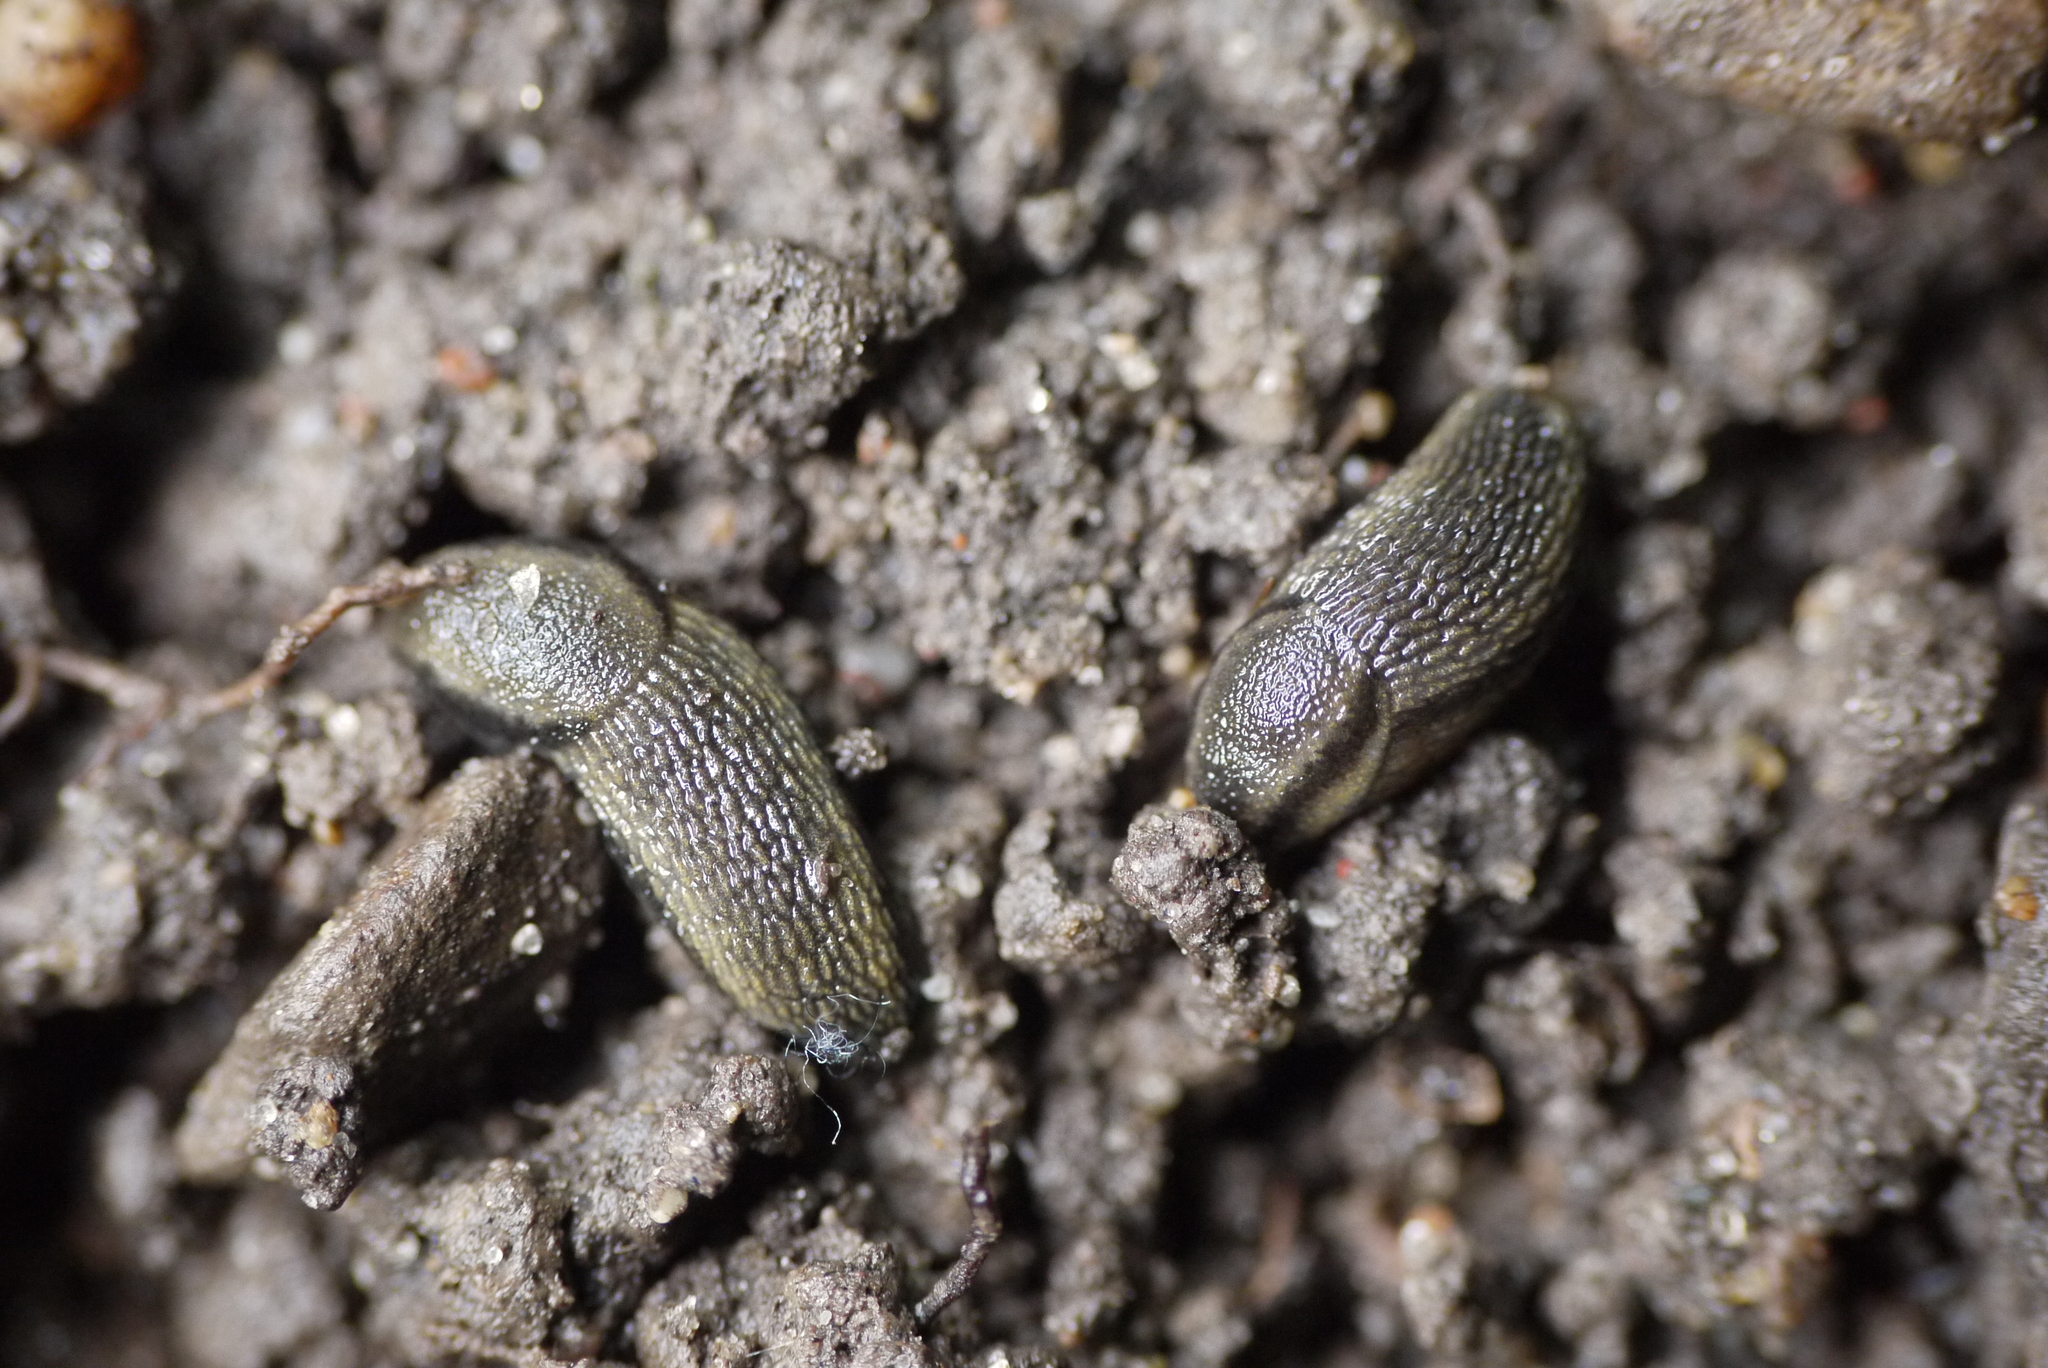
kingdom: Animalia
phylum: Mollusca
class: Gastropoda
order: Stylommatophora
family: Arionidae
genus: Arion
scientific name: Arion distinctus
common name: Darkface arion
